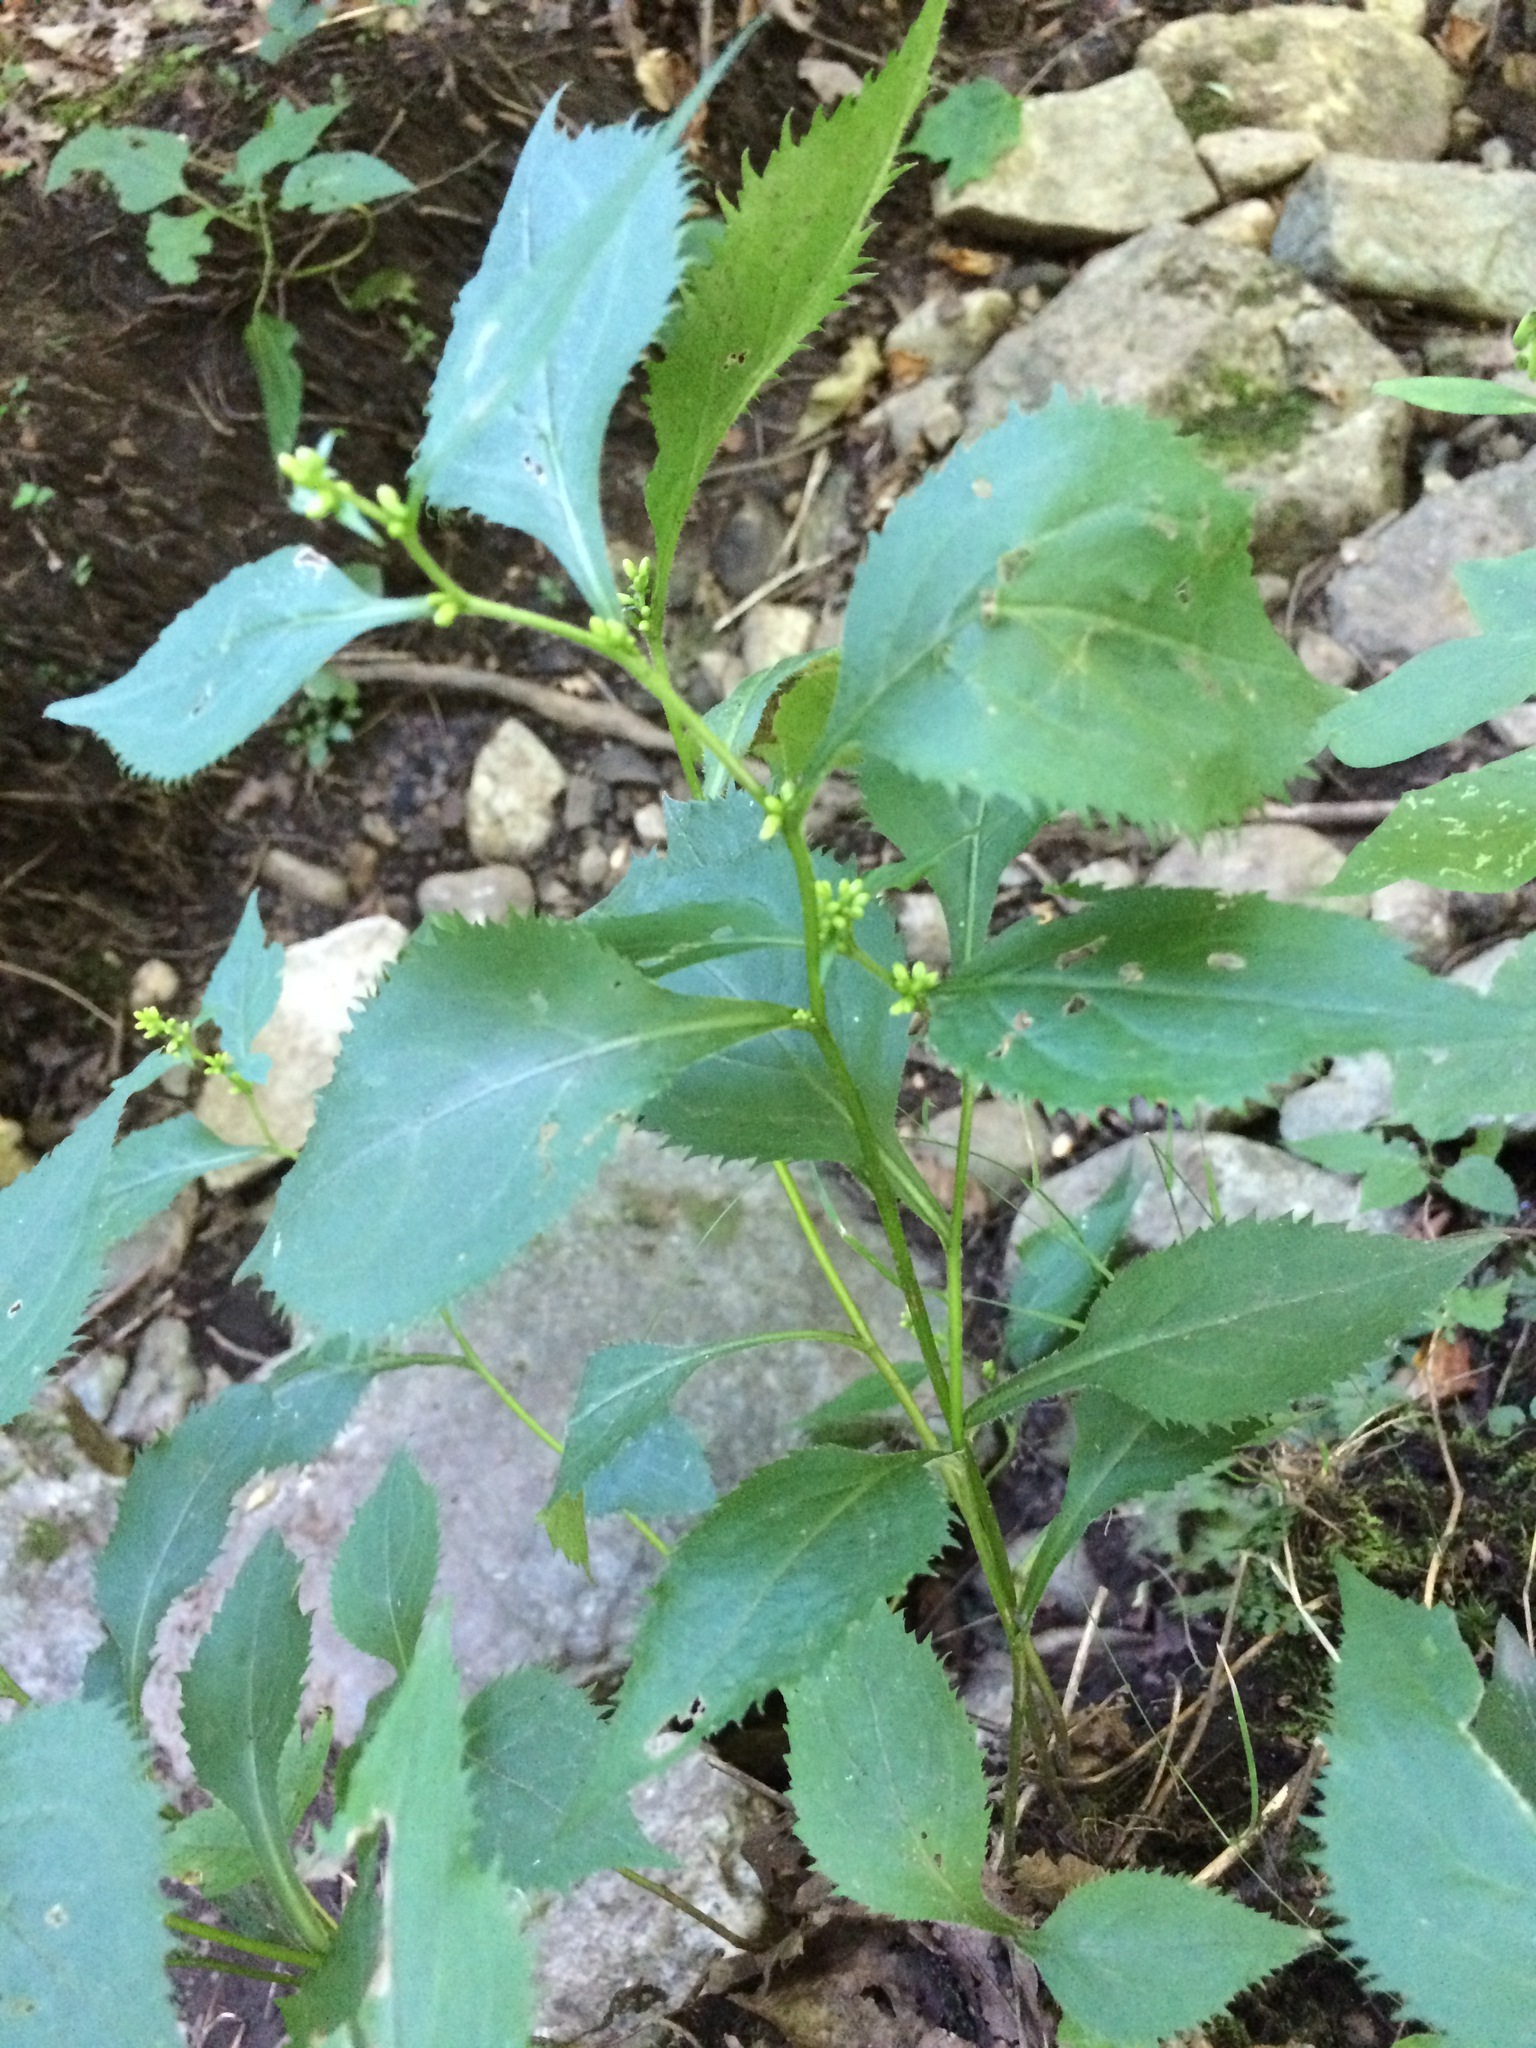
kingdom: Plantae
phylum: Tracheophyta
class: Magnoliopsida
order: Asterales
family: Asteraceae
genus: Solidago
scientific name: Solidago flexicaulis
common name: Zig-zag goldenrod
